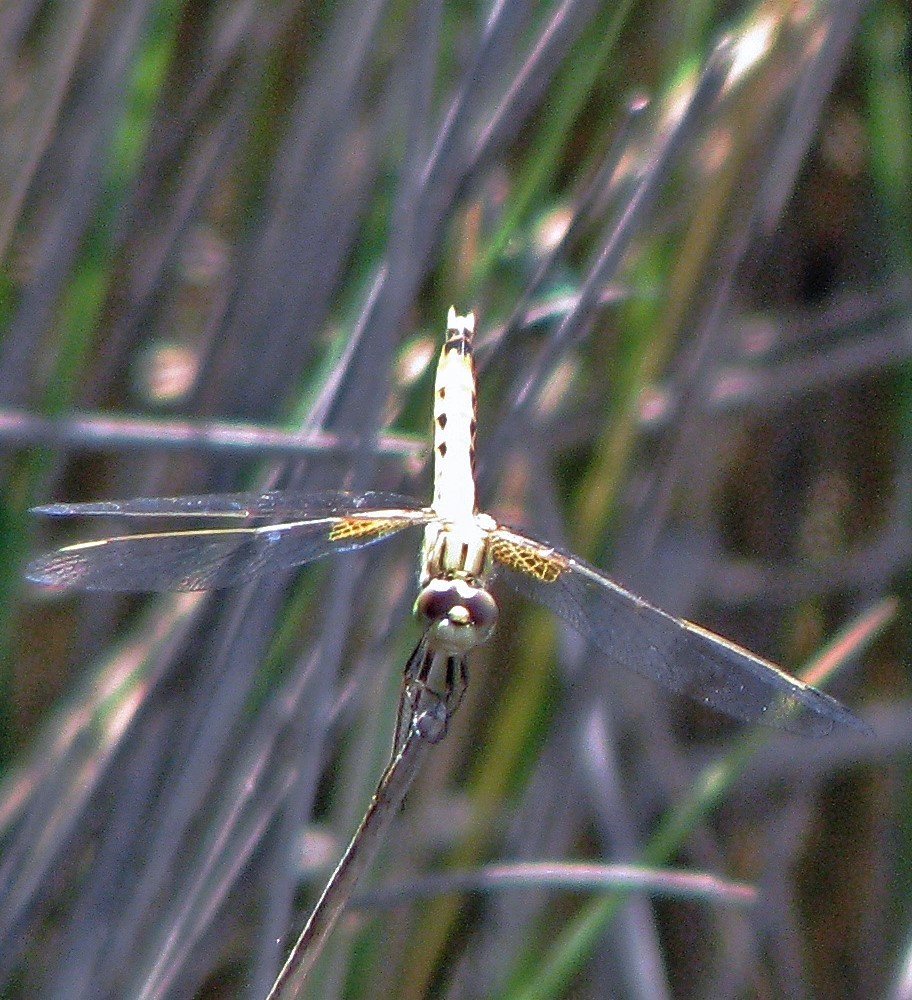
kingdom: Animalia
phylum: Arthropoda
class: Insecta
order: Odonata
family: Libellulidae
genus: Erythrodiplax
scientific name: Erythrodiplax corallina
